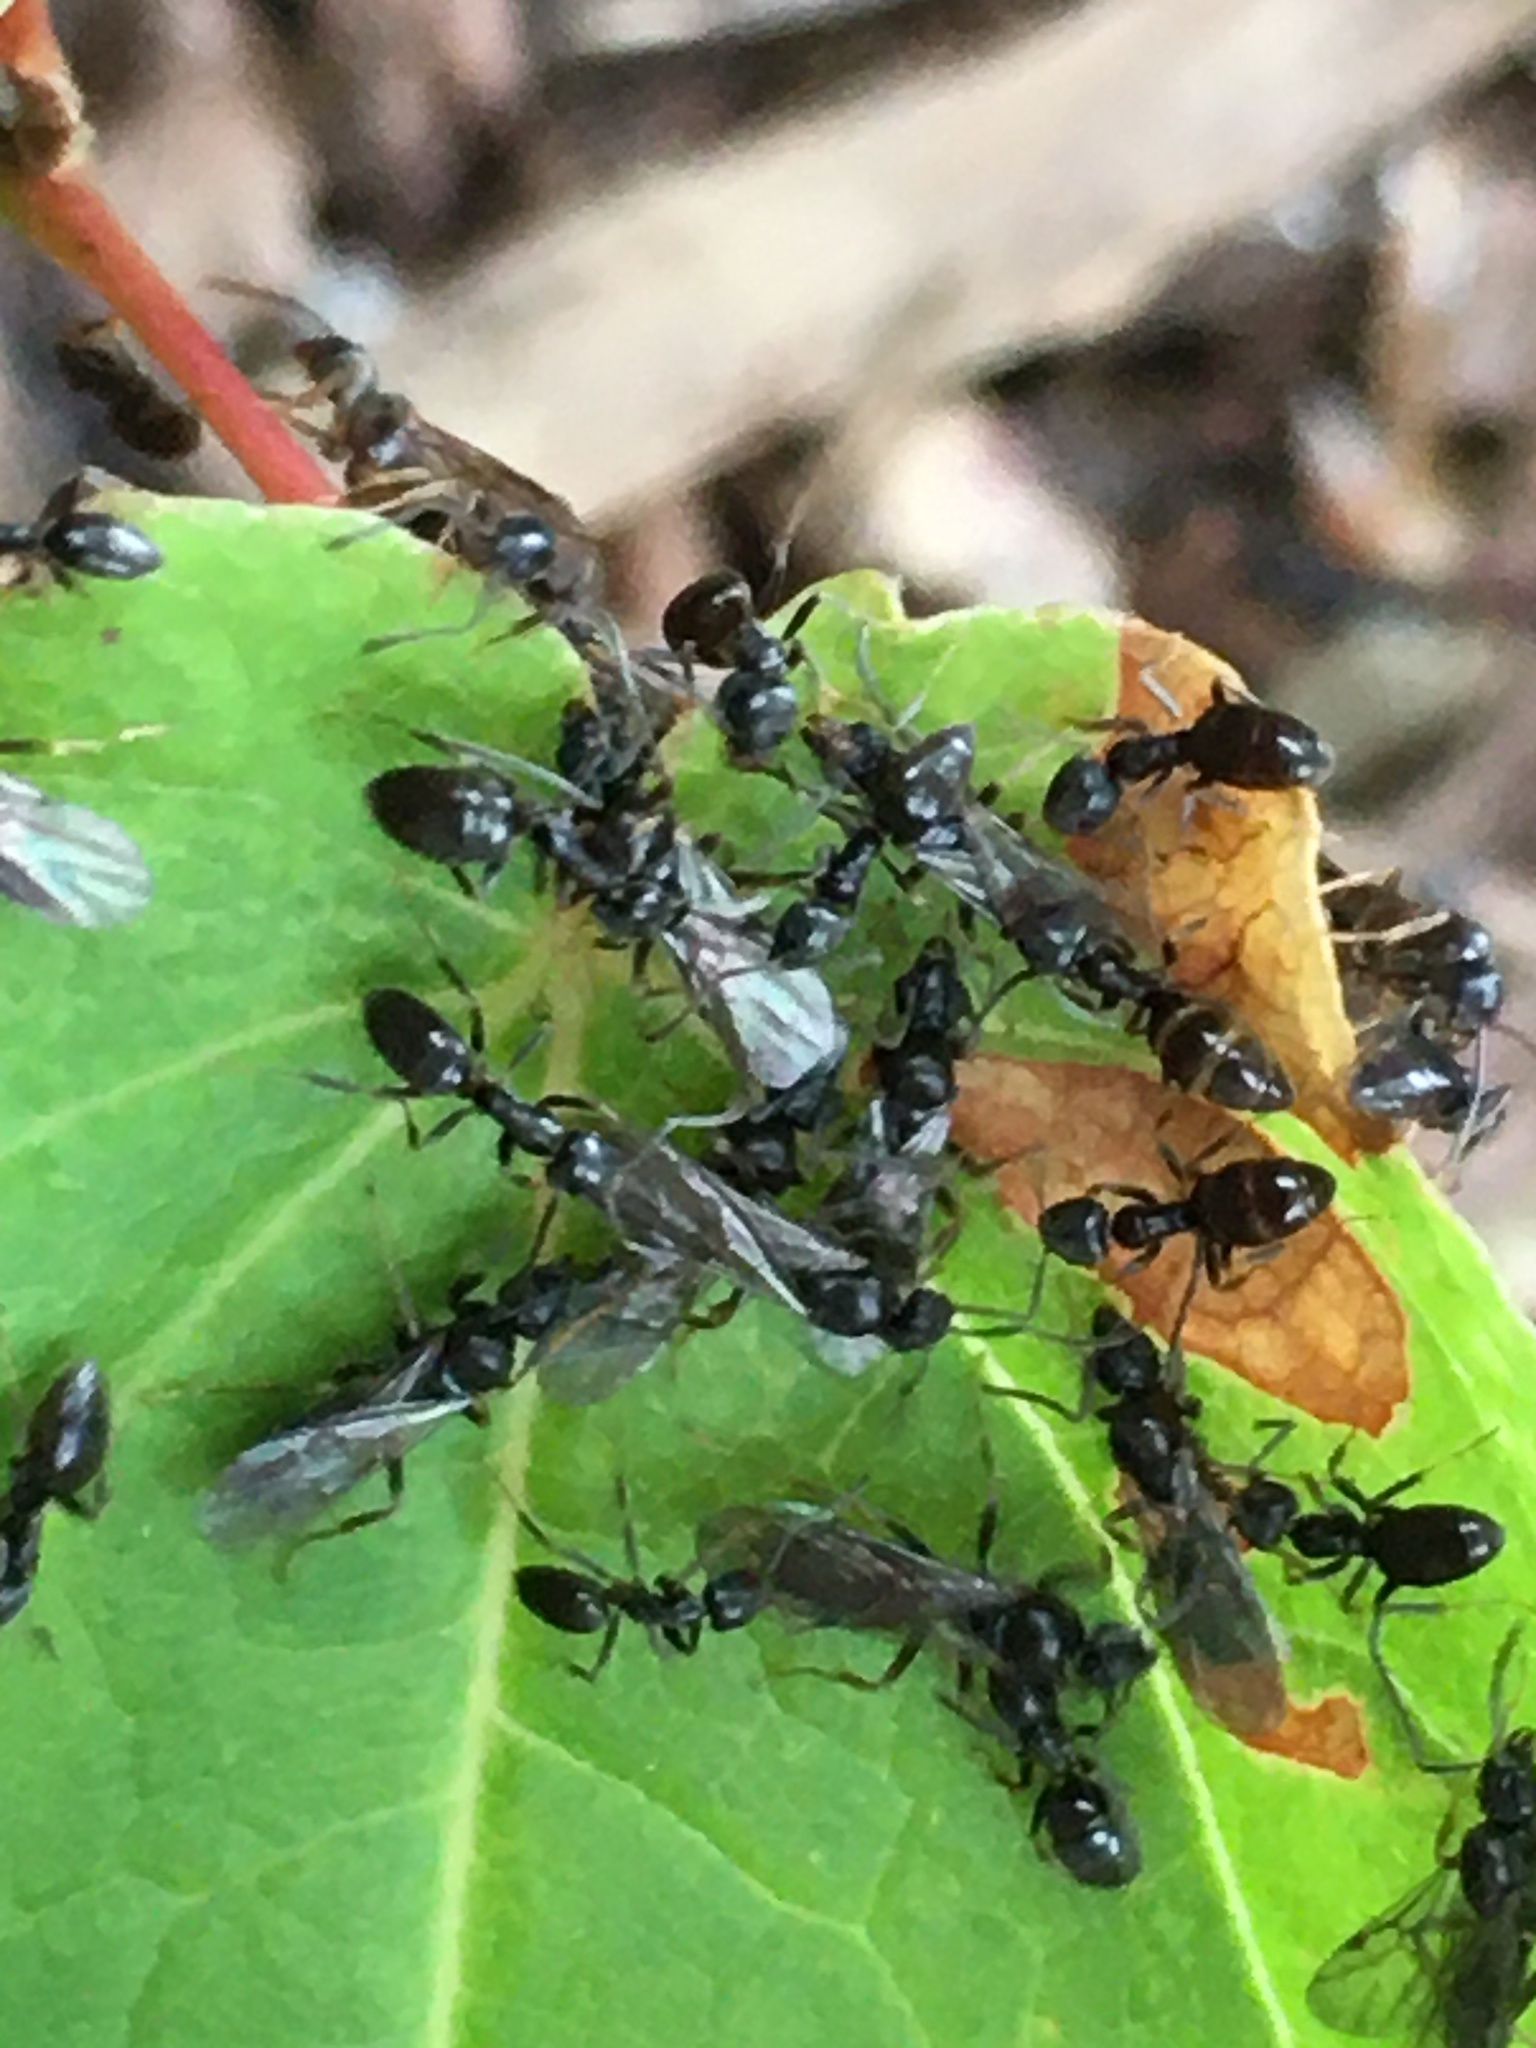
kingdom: Animalia
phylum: Arthropoda
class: Insecta
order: Hymenoptera
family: Formicidae
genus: Tapinoma
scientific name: Tapinoma sessile
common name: Odorous house ant
